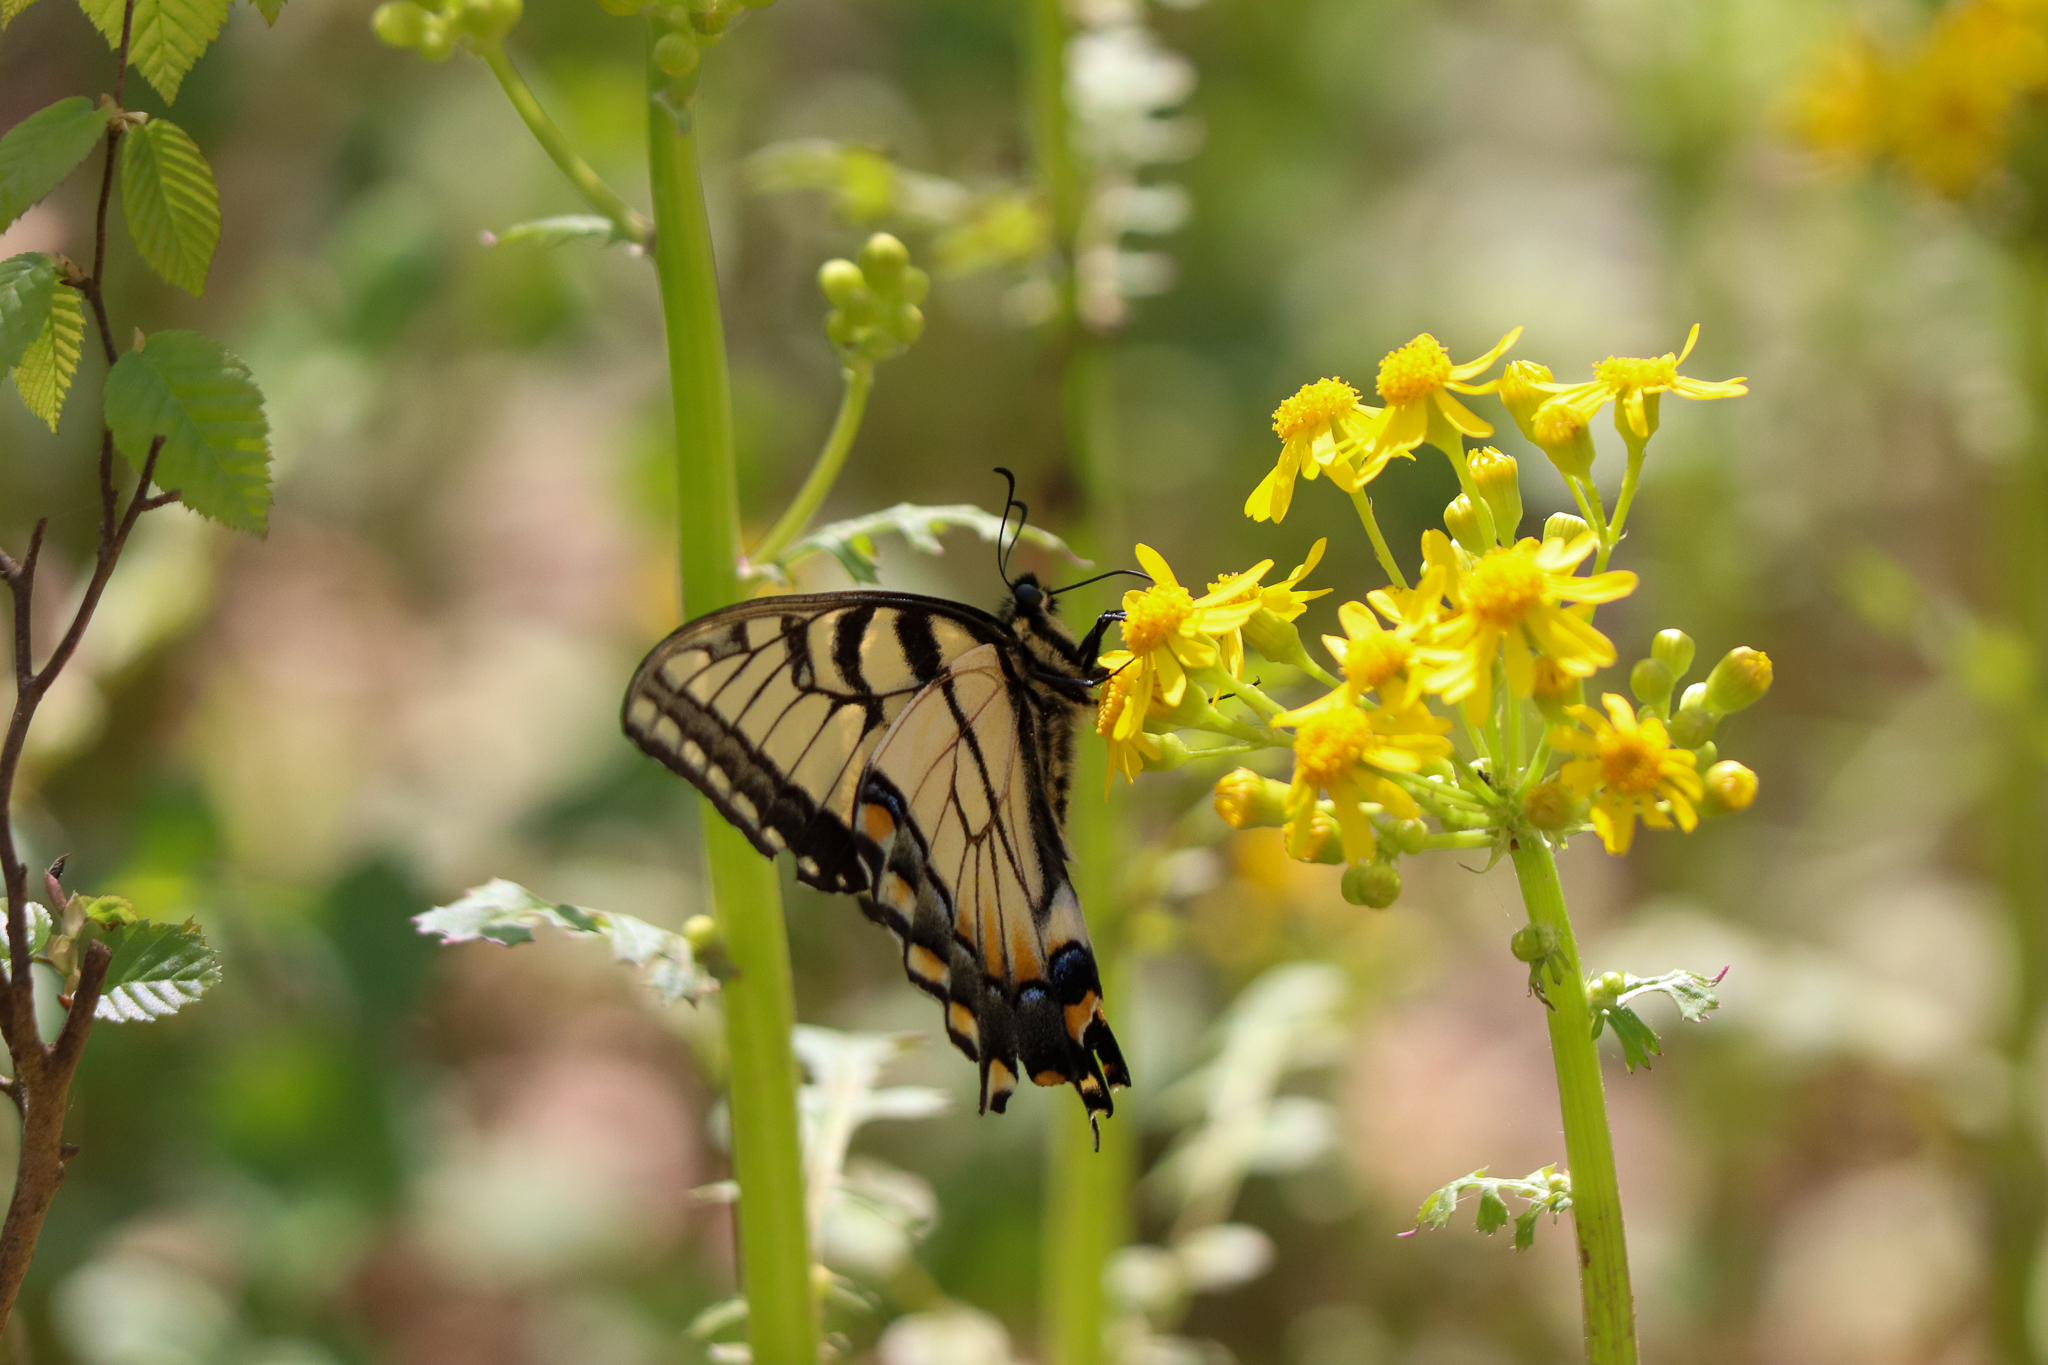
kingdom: Animalia
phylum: Arthropoda
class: Insecta
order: Lepidoptera
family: Papilionidae
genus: Papilio
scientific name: Papilio glaucus
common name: Tiger swallowtail
